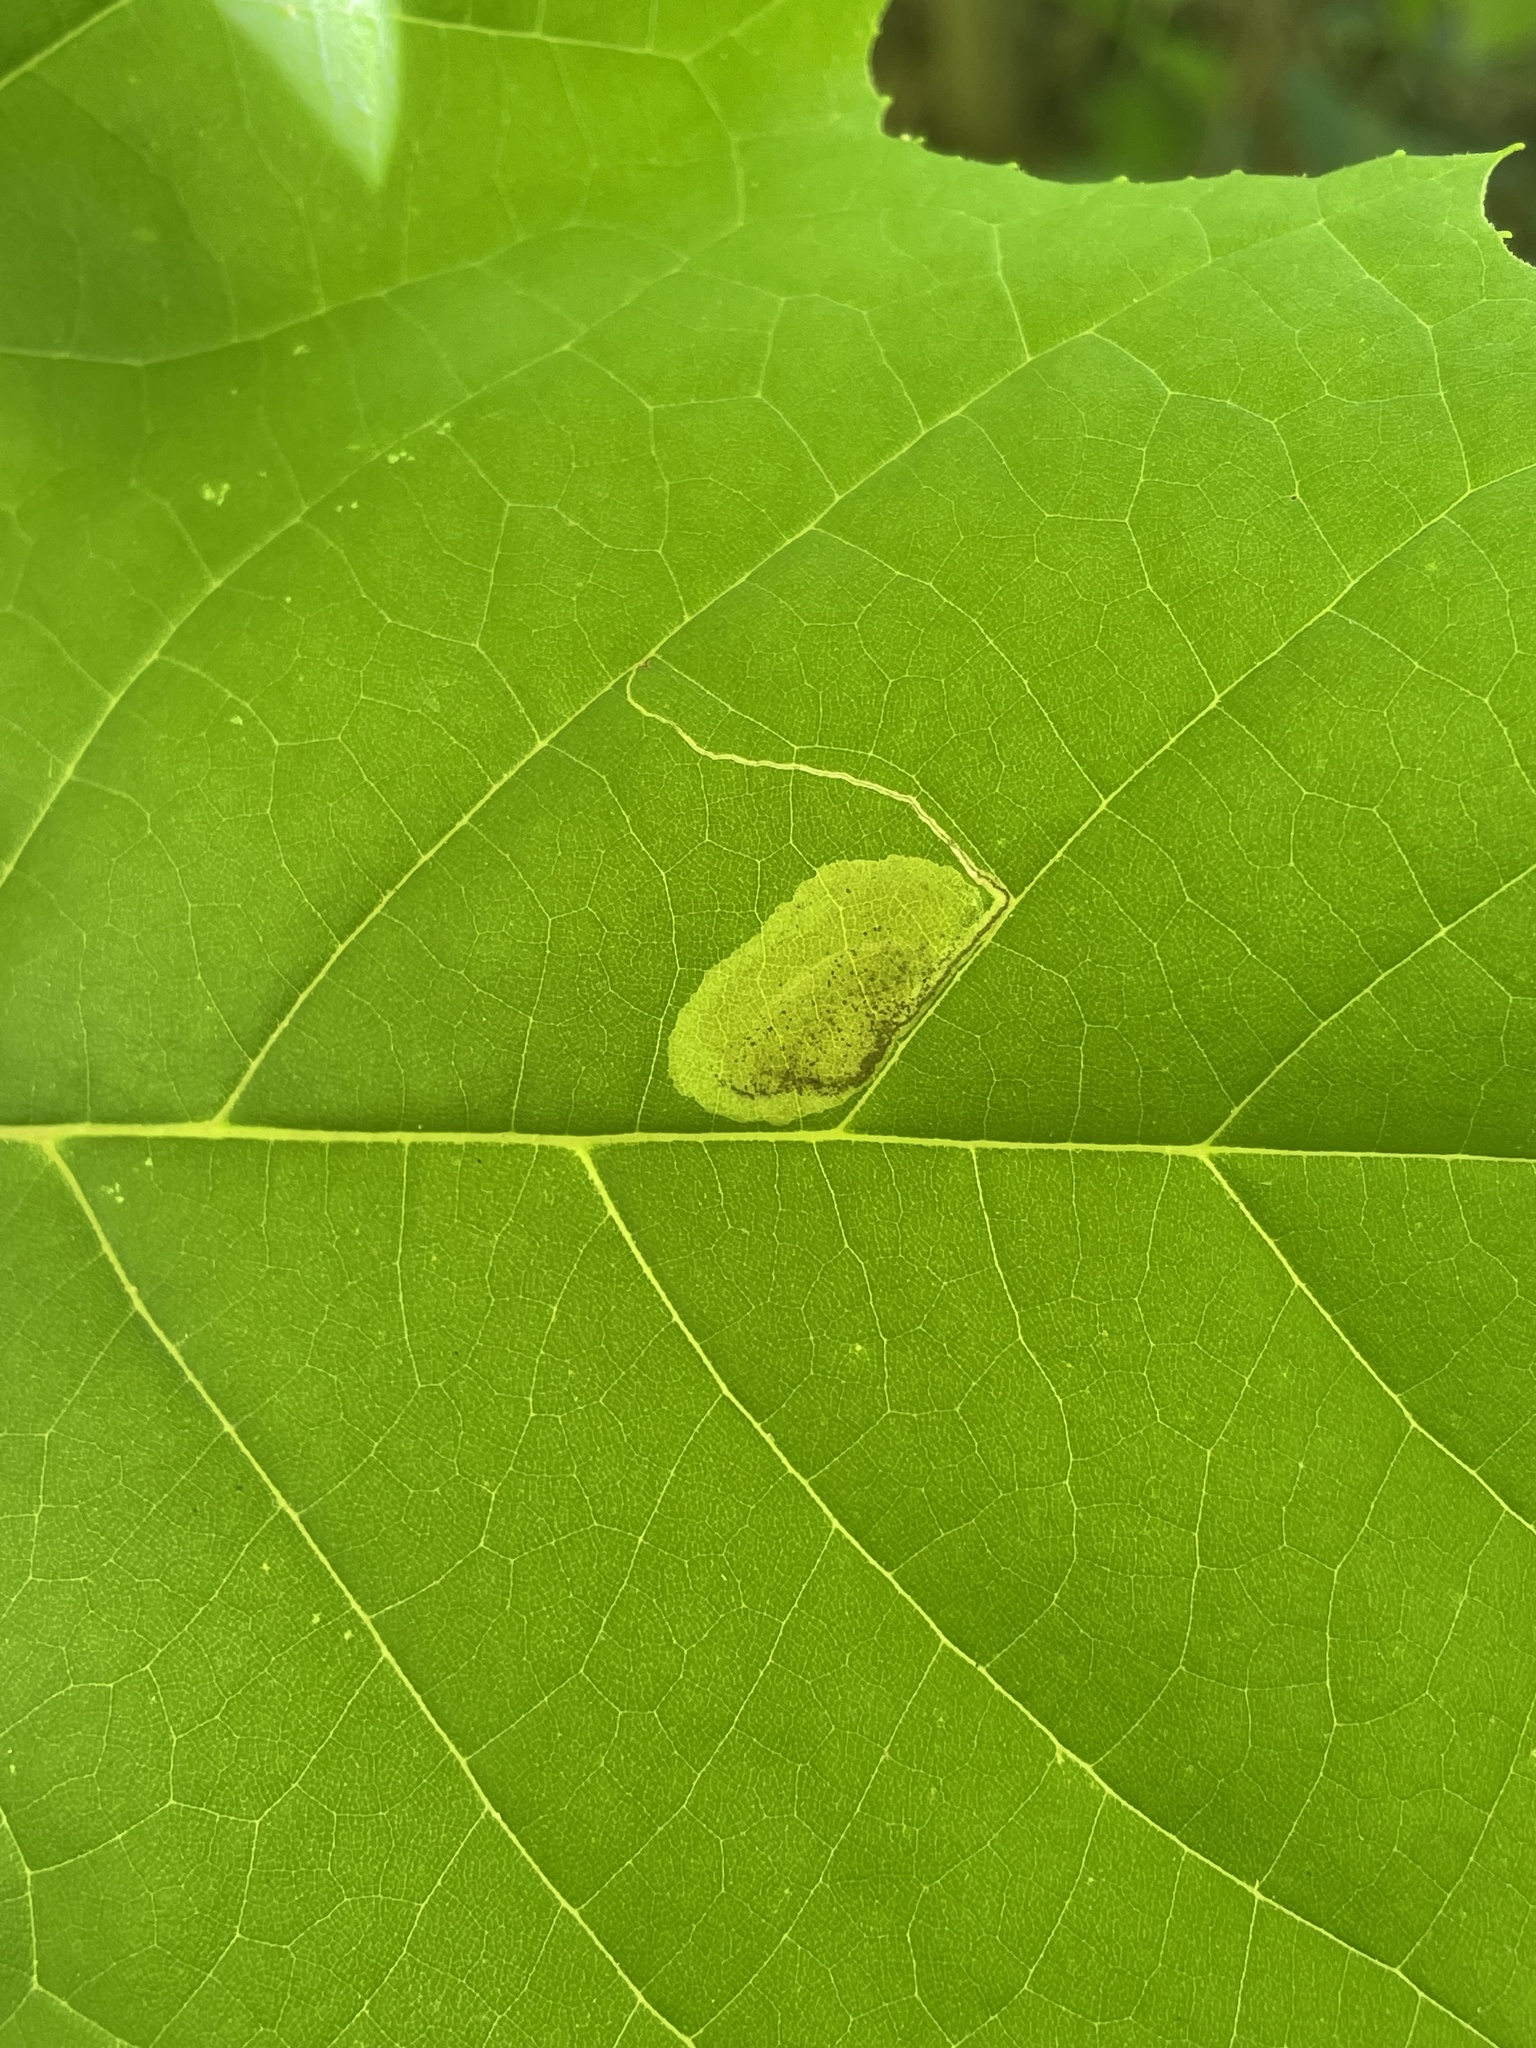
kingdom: Animalia
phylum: Arthropoda
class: Insecta
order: Lepidoptera
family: Nepticulidae
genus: Ectoedemia
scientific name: Ectoedemia platanella
